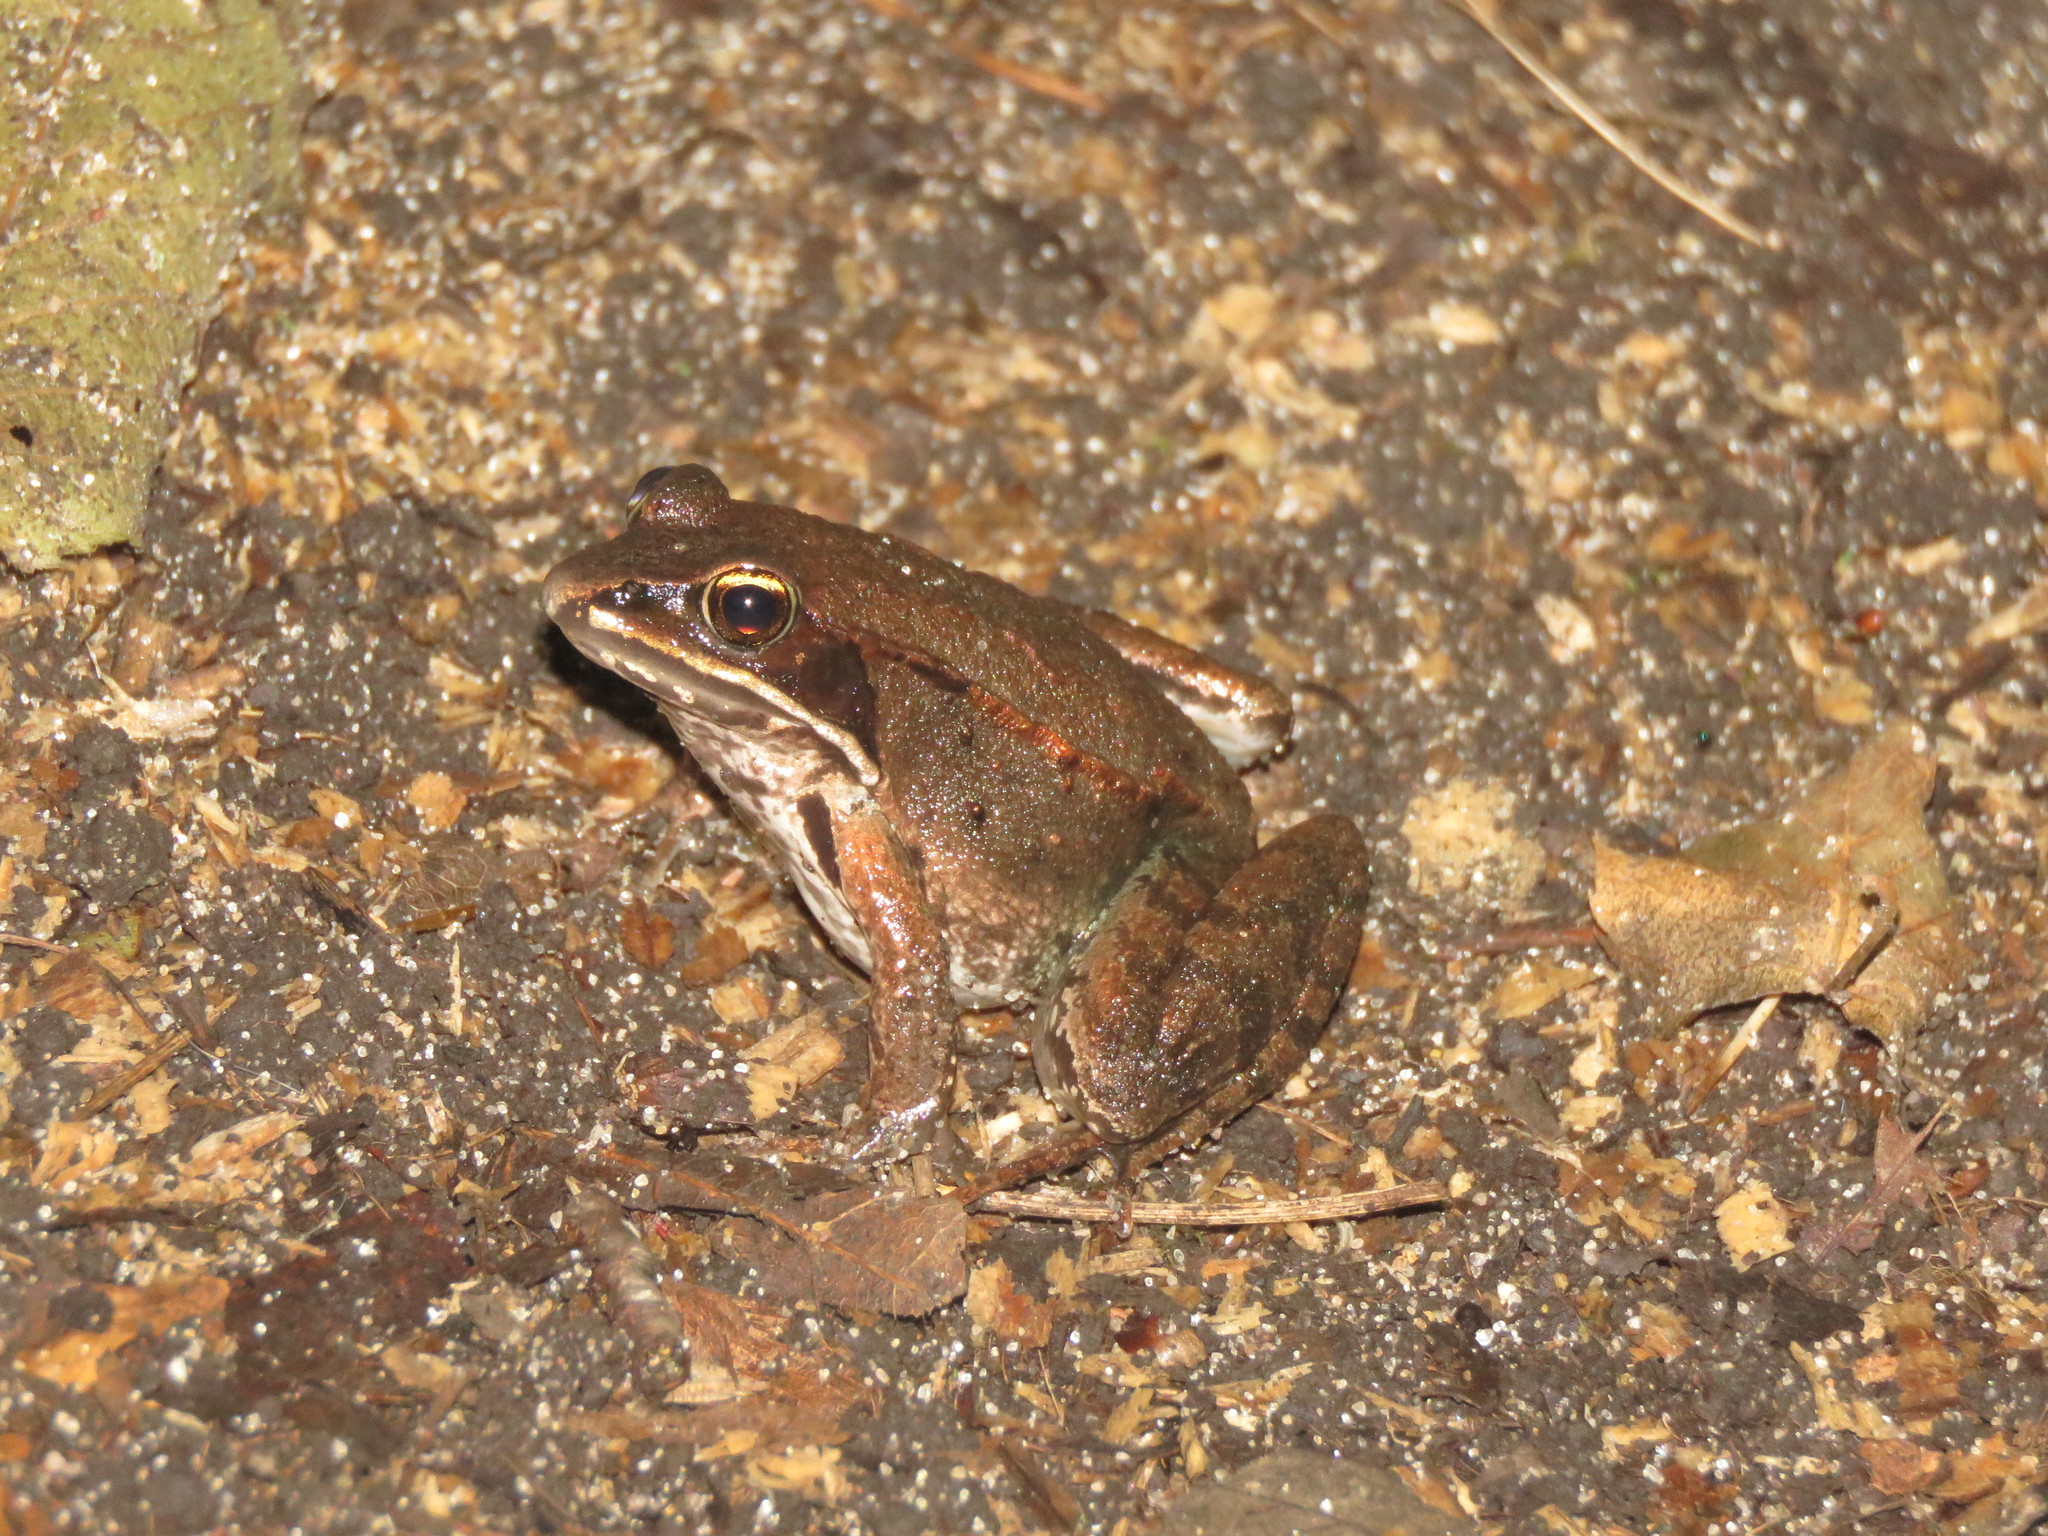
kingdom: Animalia
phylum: Chordata
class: Amphibia
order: Anura
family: Ranidae
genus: Lithobates
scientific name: Lithobates sylvaticus
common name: Wood frog
